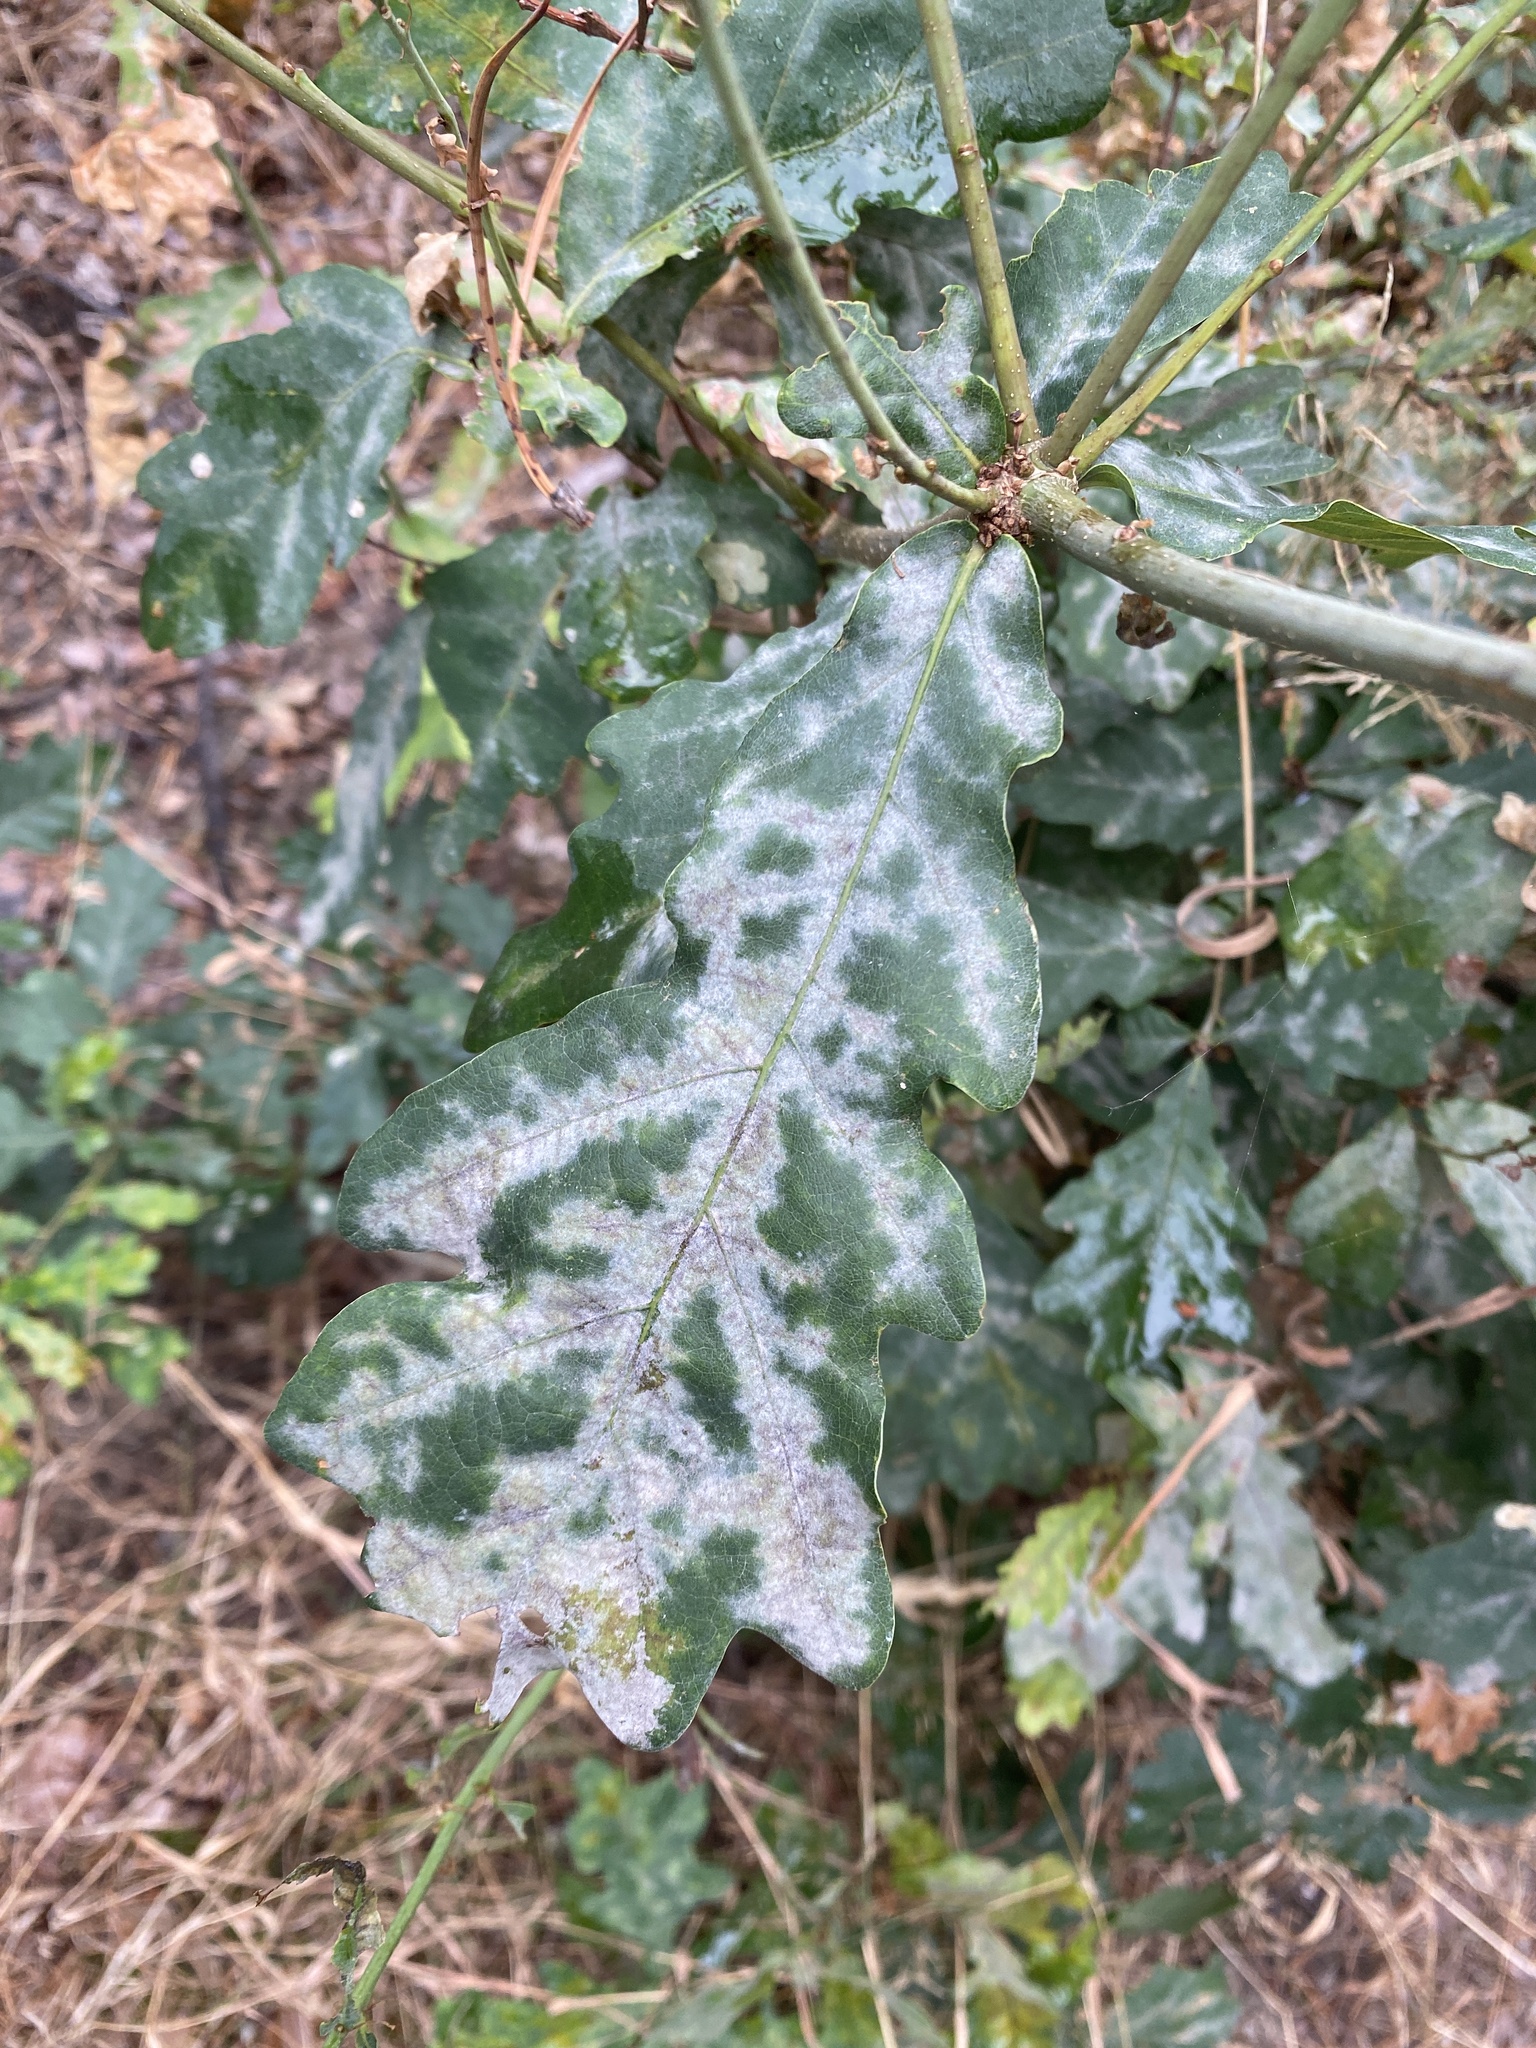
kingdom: Fungi
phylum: Ascomycota
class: Leotiomycetes
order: Helotiales
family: Erysiphaceae
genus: Erysiphe
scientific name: Erysiphe
